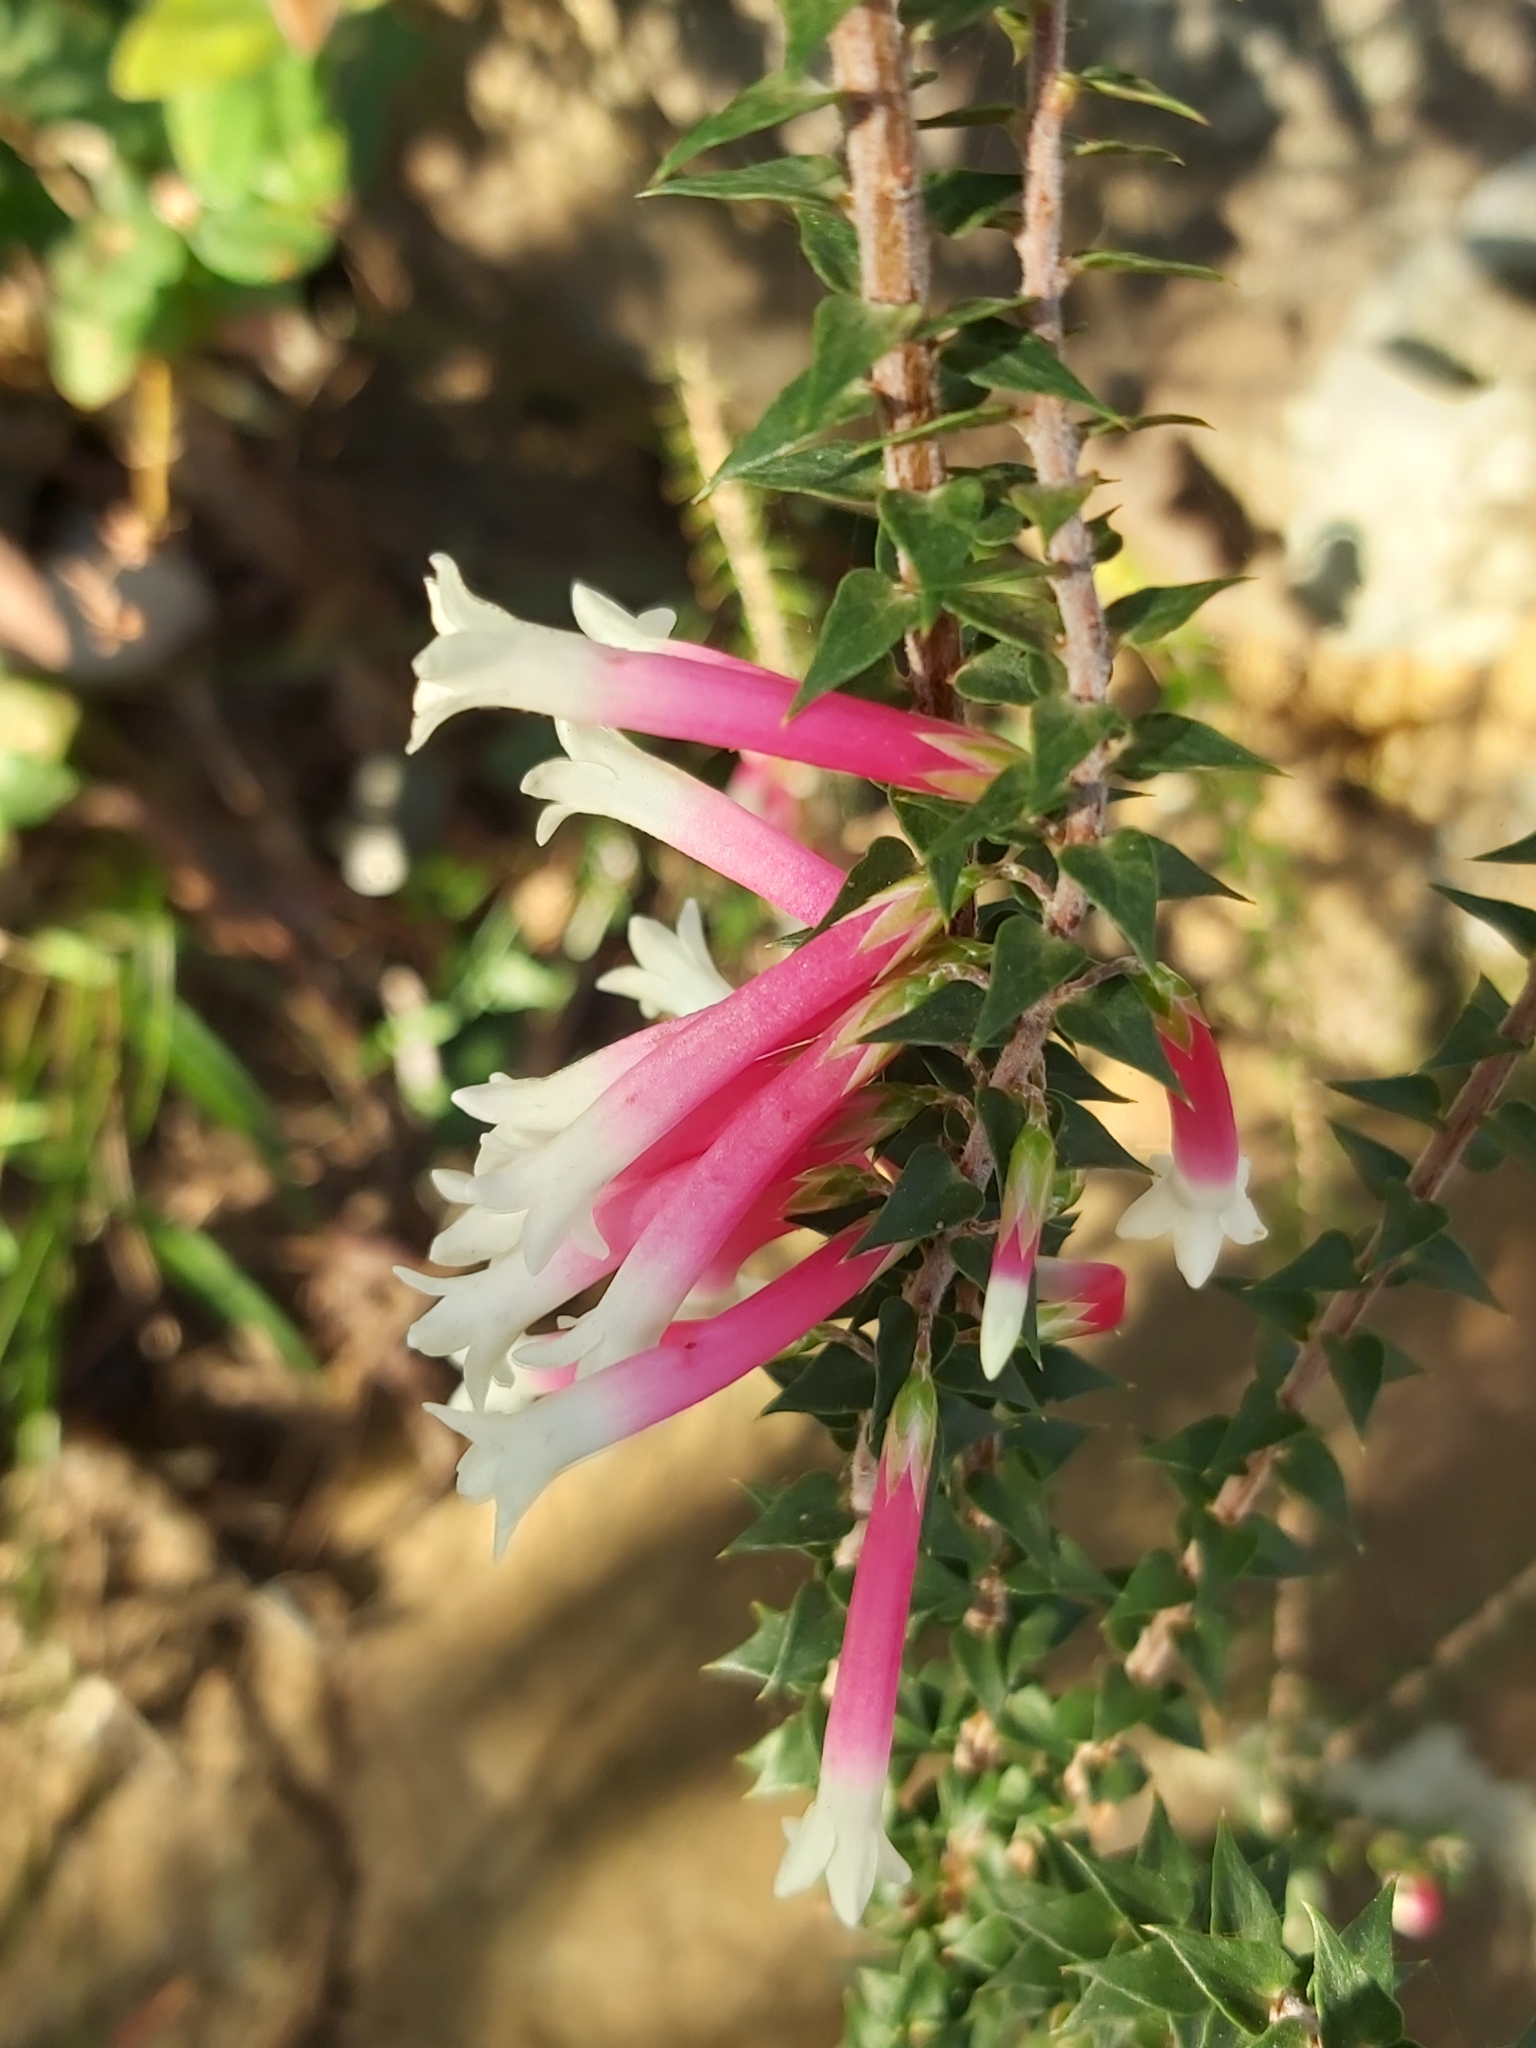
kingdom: Plantae
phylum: Tracheophyta
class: Magnoliopsida
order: Ericales
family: Ericaceae
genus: Epacris
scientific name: Epacris longiflora
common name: Fuchsia-heath
